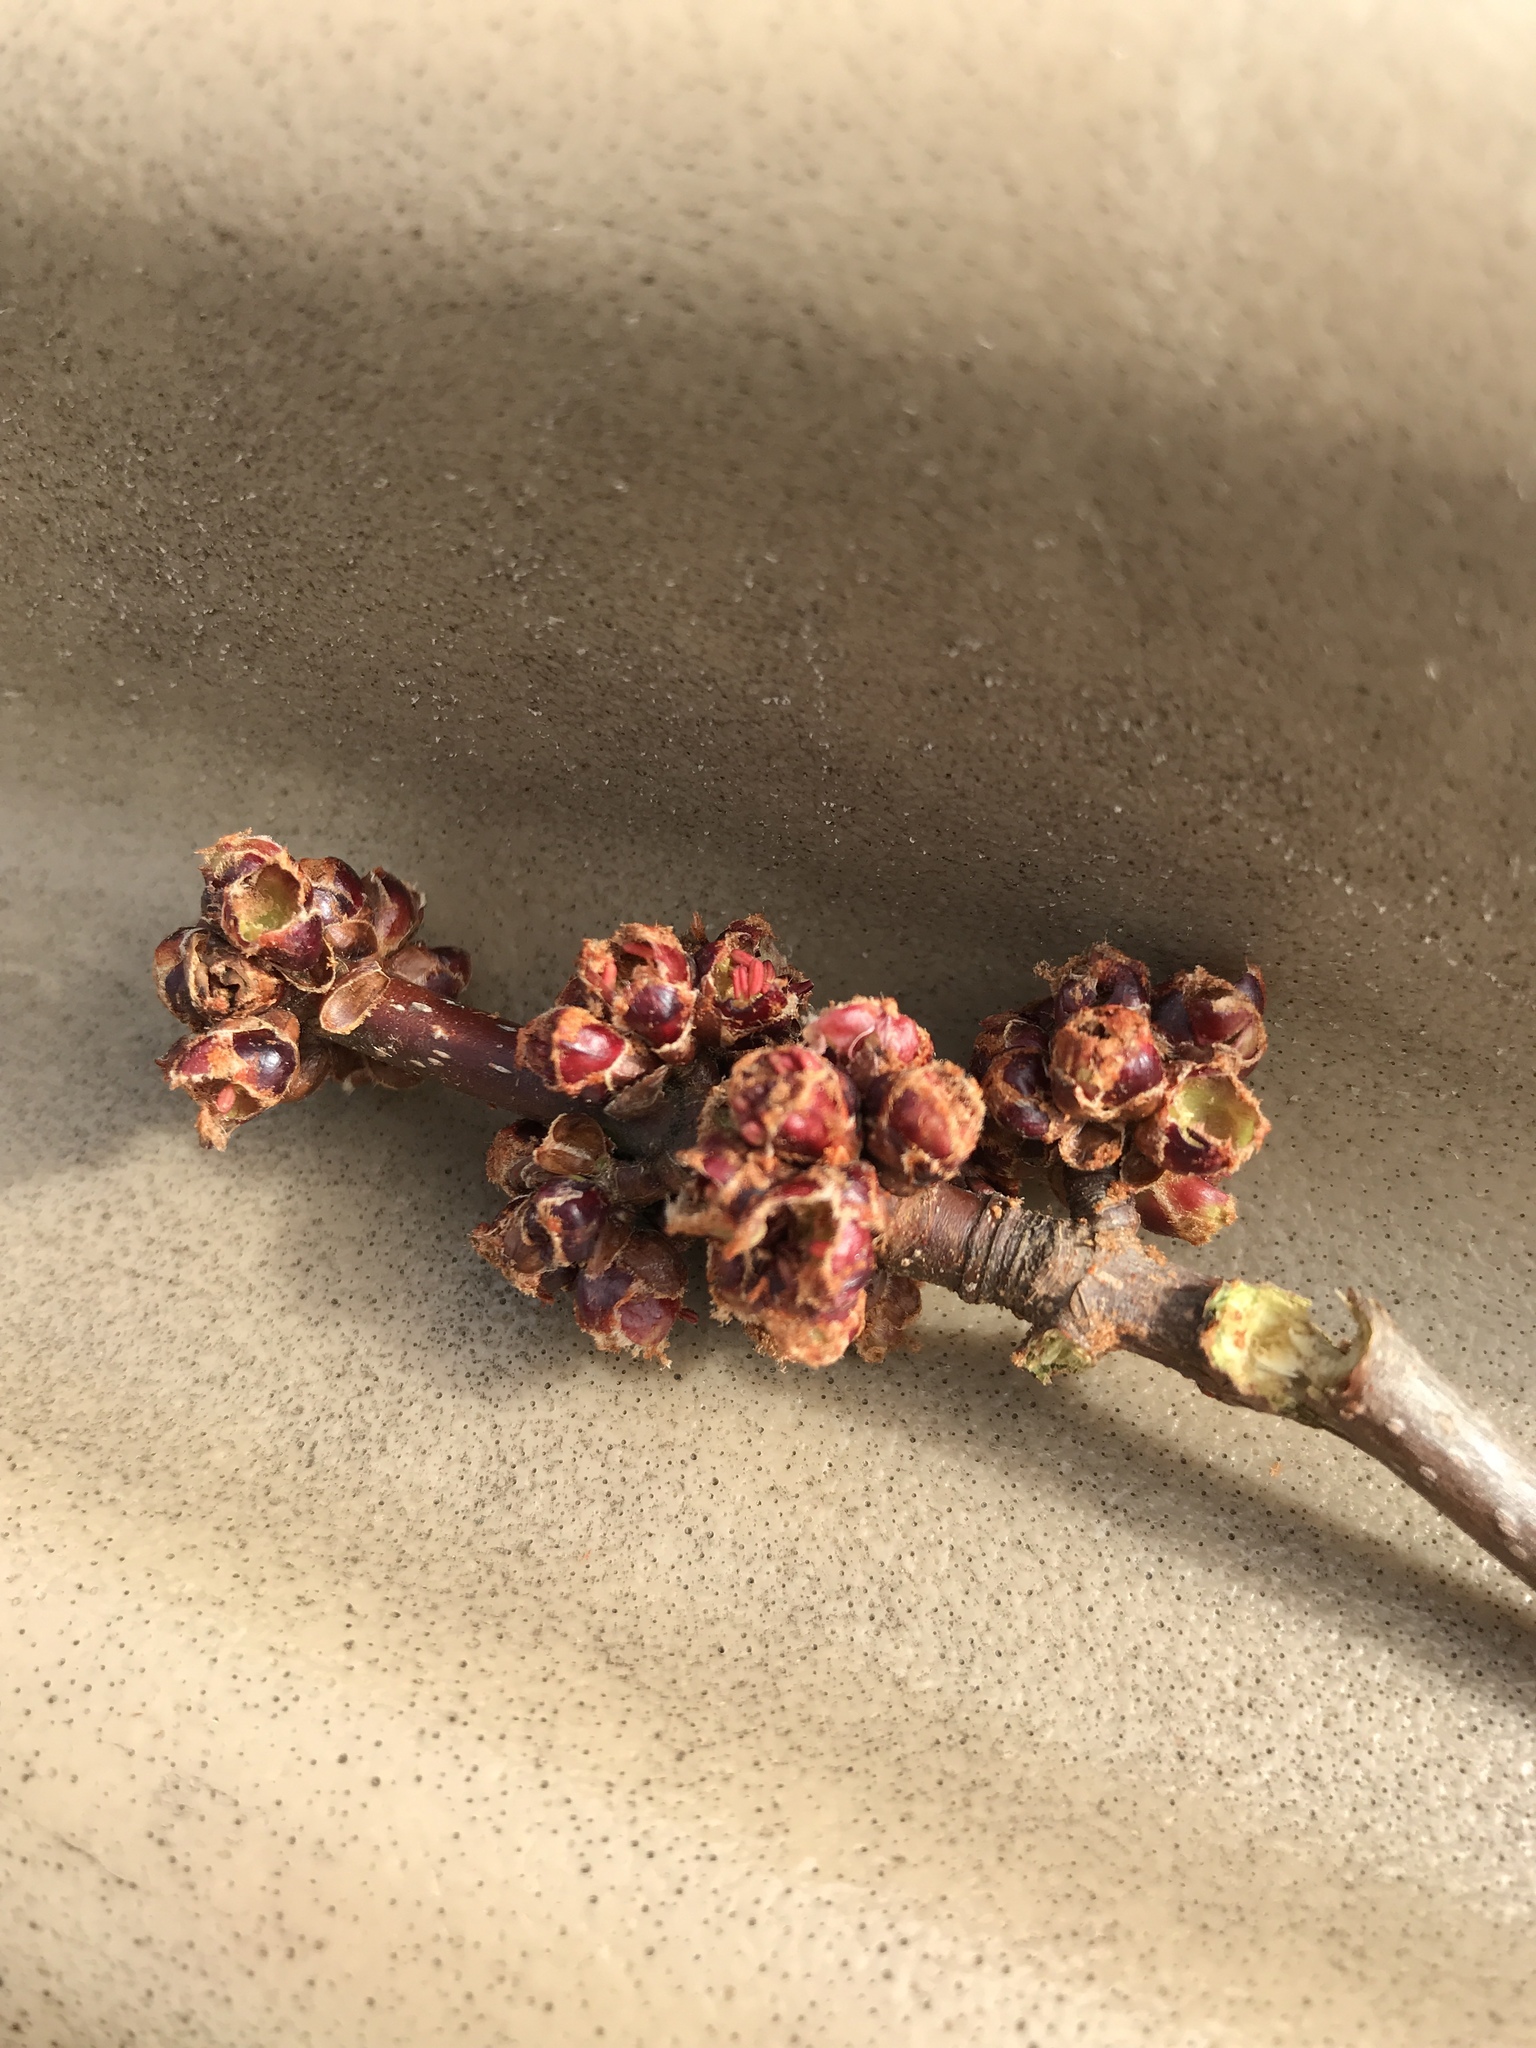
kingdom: Plantae
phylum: Tracheophyta
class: Magnoliopsida
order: Sapindales
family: Sapindaceae
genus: Acer
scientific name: Acer rubrum
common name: Red maple
